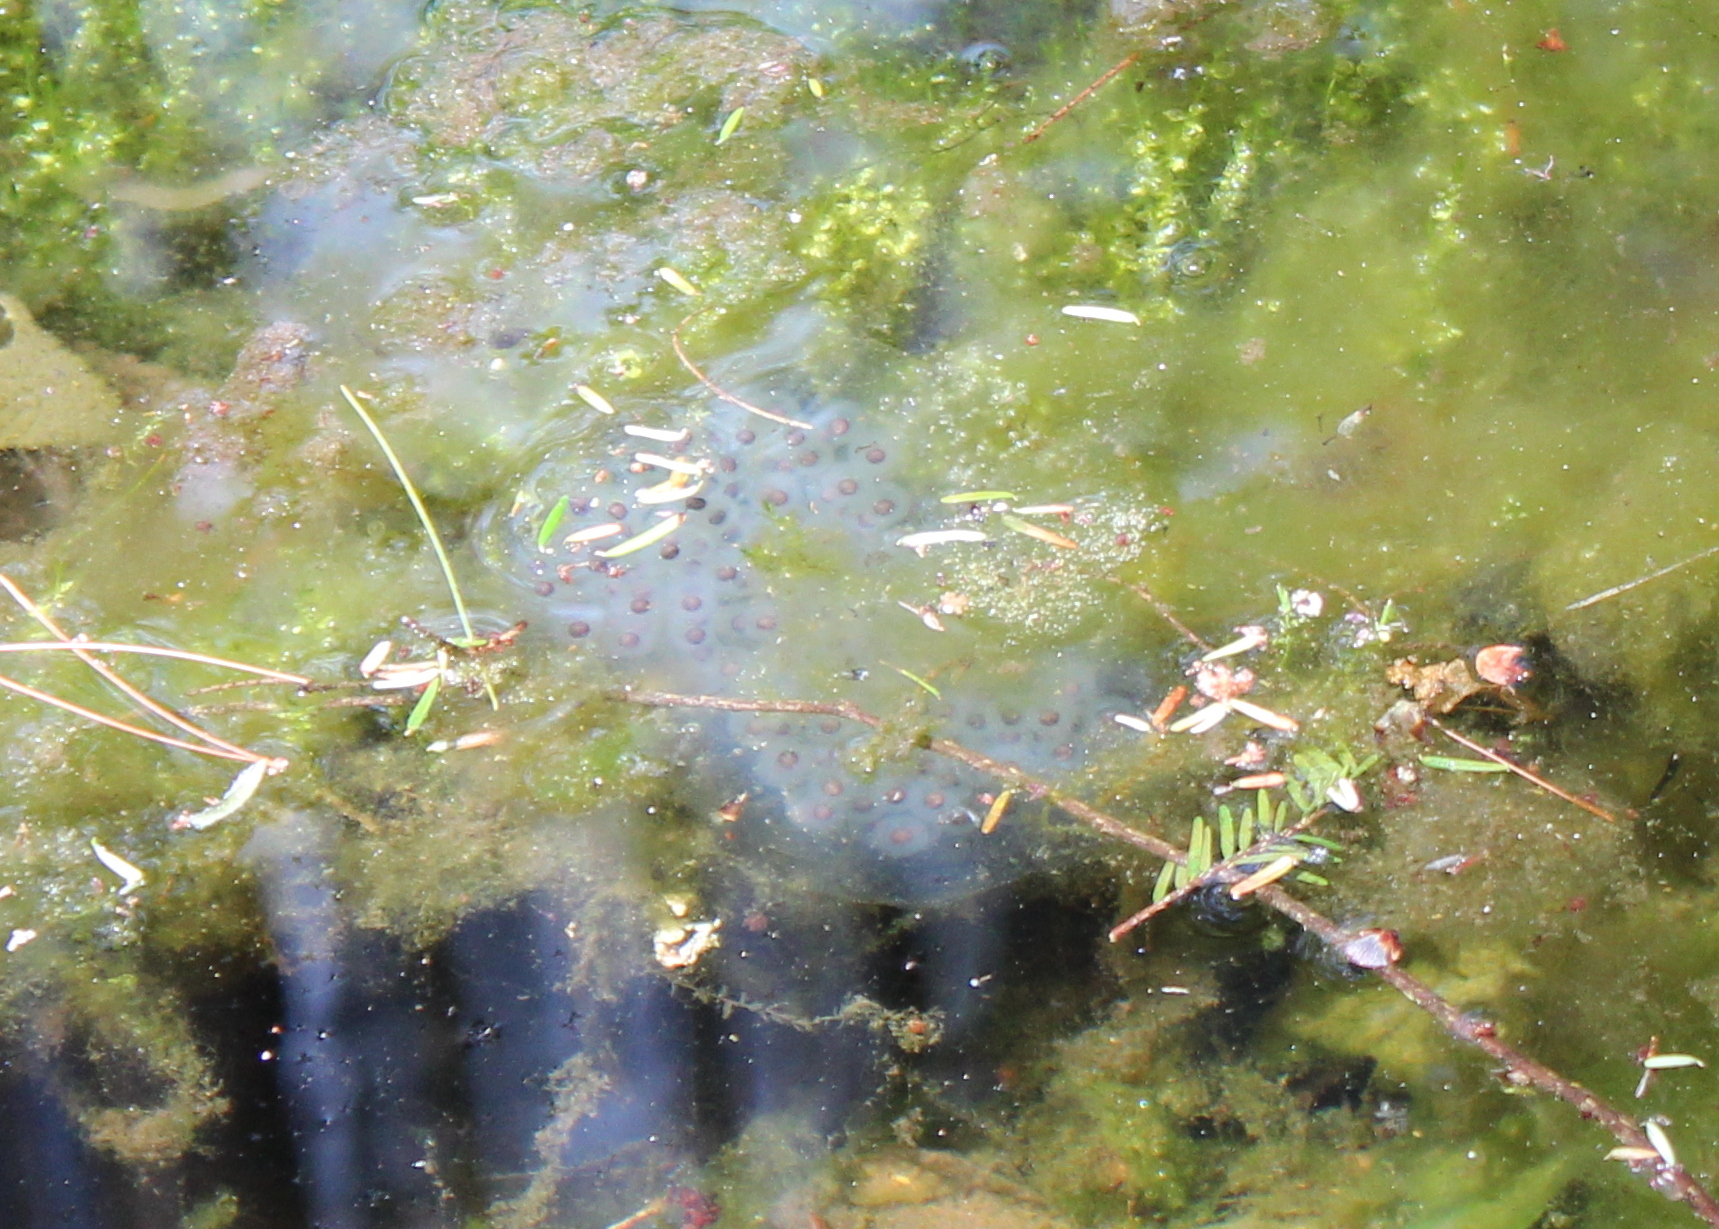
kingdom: Animalia
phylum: Chordata
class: Amphibia
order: Caudata
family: Ambystomatidae
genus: Ambystoma
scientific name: Ambystoma maculatum
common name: Spotted salamander
